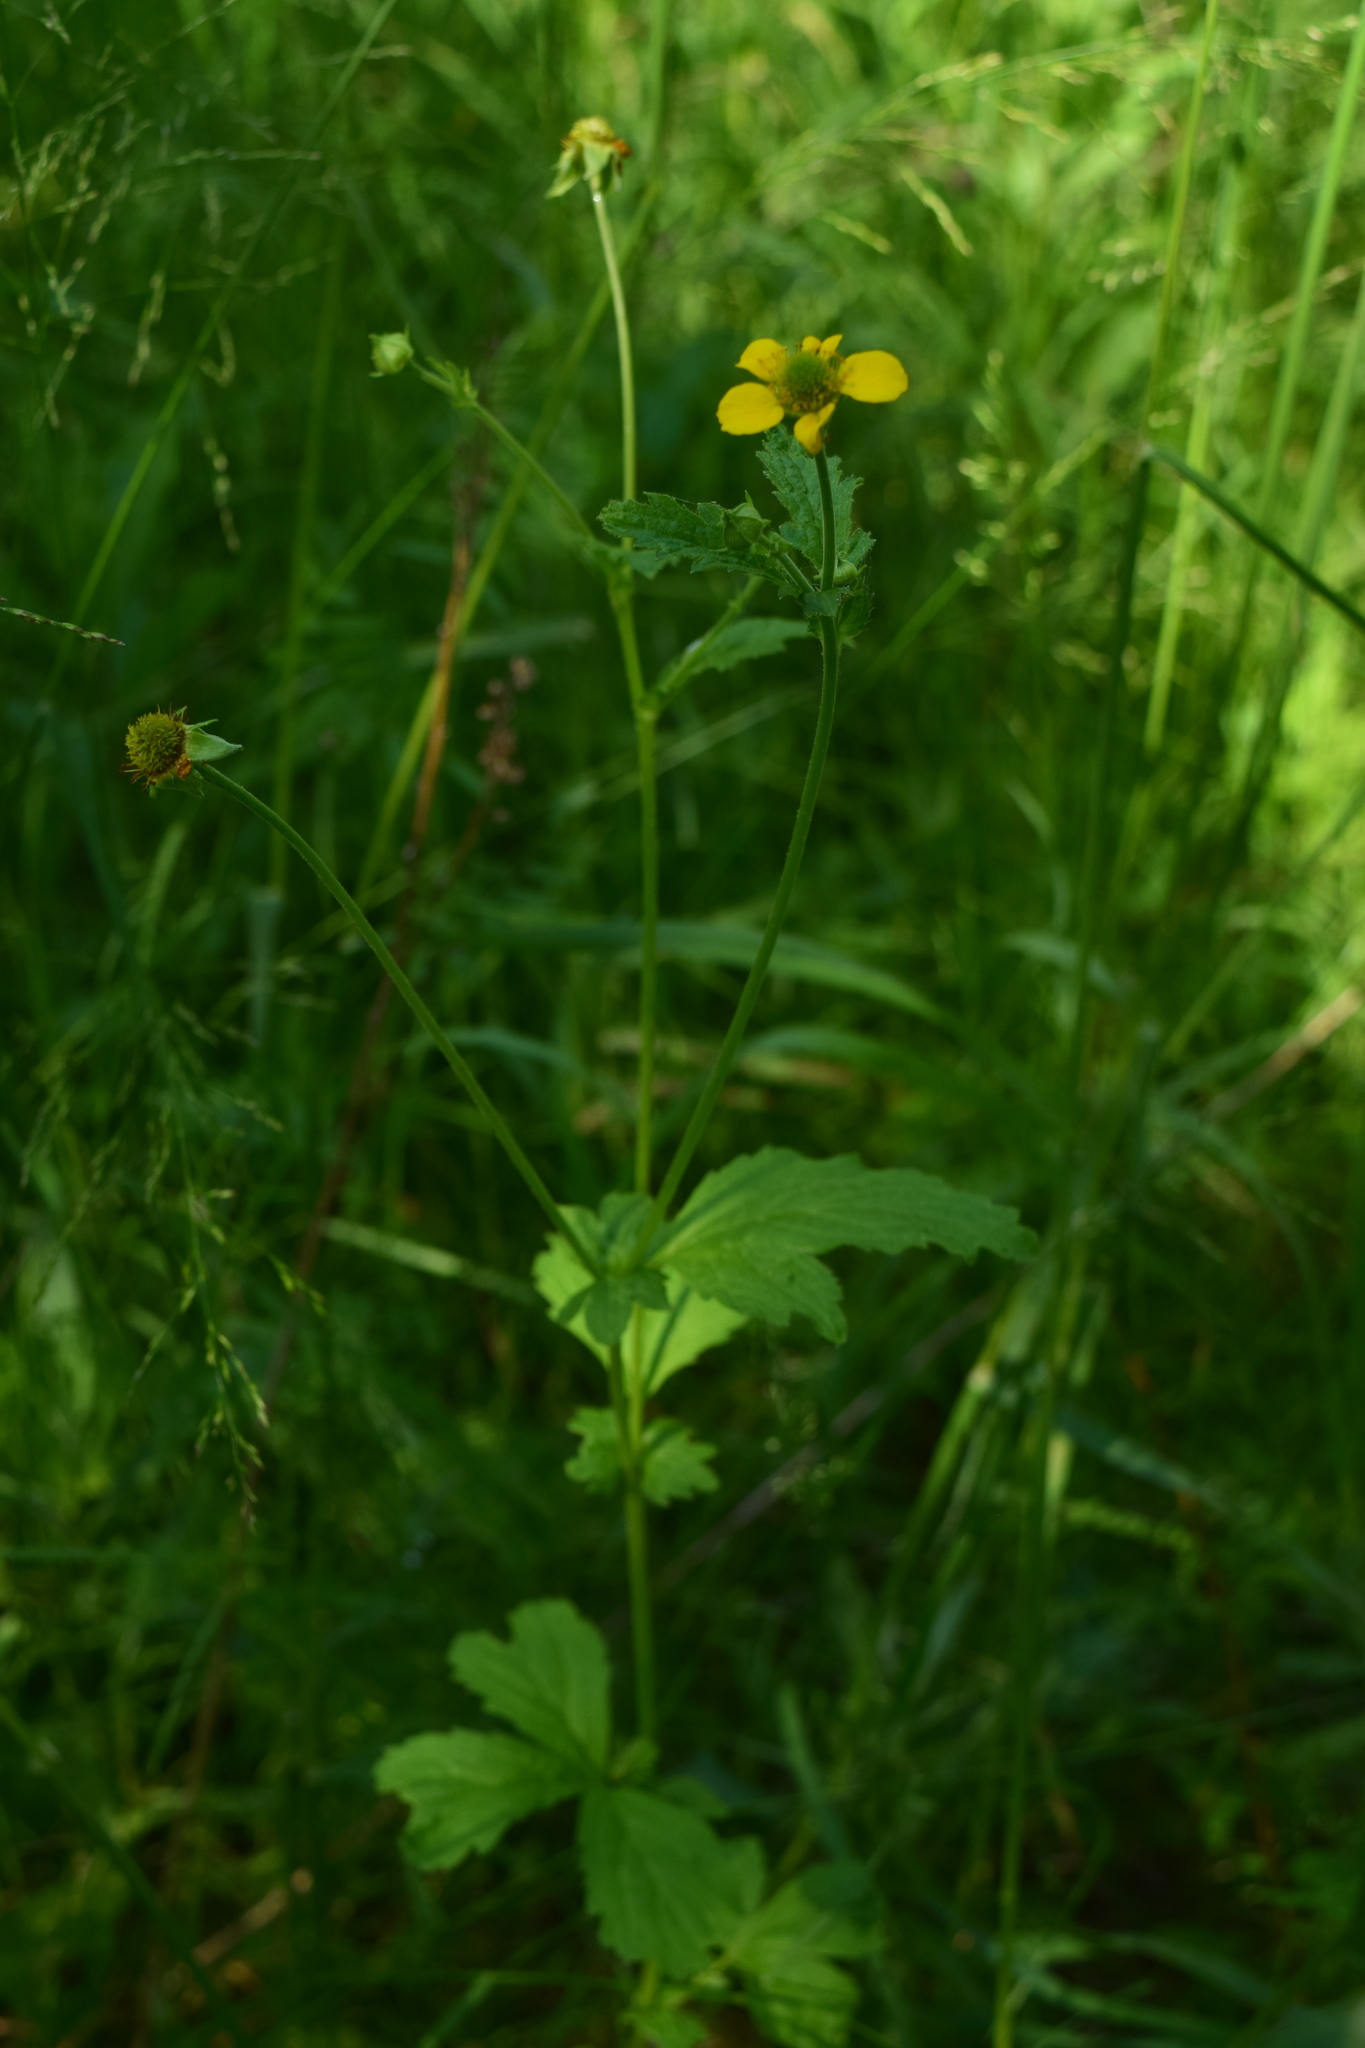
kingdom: Plantae
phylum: Tracheophyta
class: Magnoliopsida
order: Rosales
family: Rosaceae
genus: Geum
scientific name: Geum urbanum
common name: Wood avens
